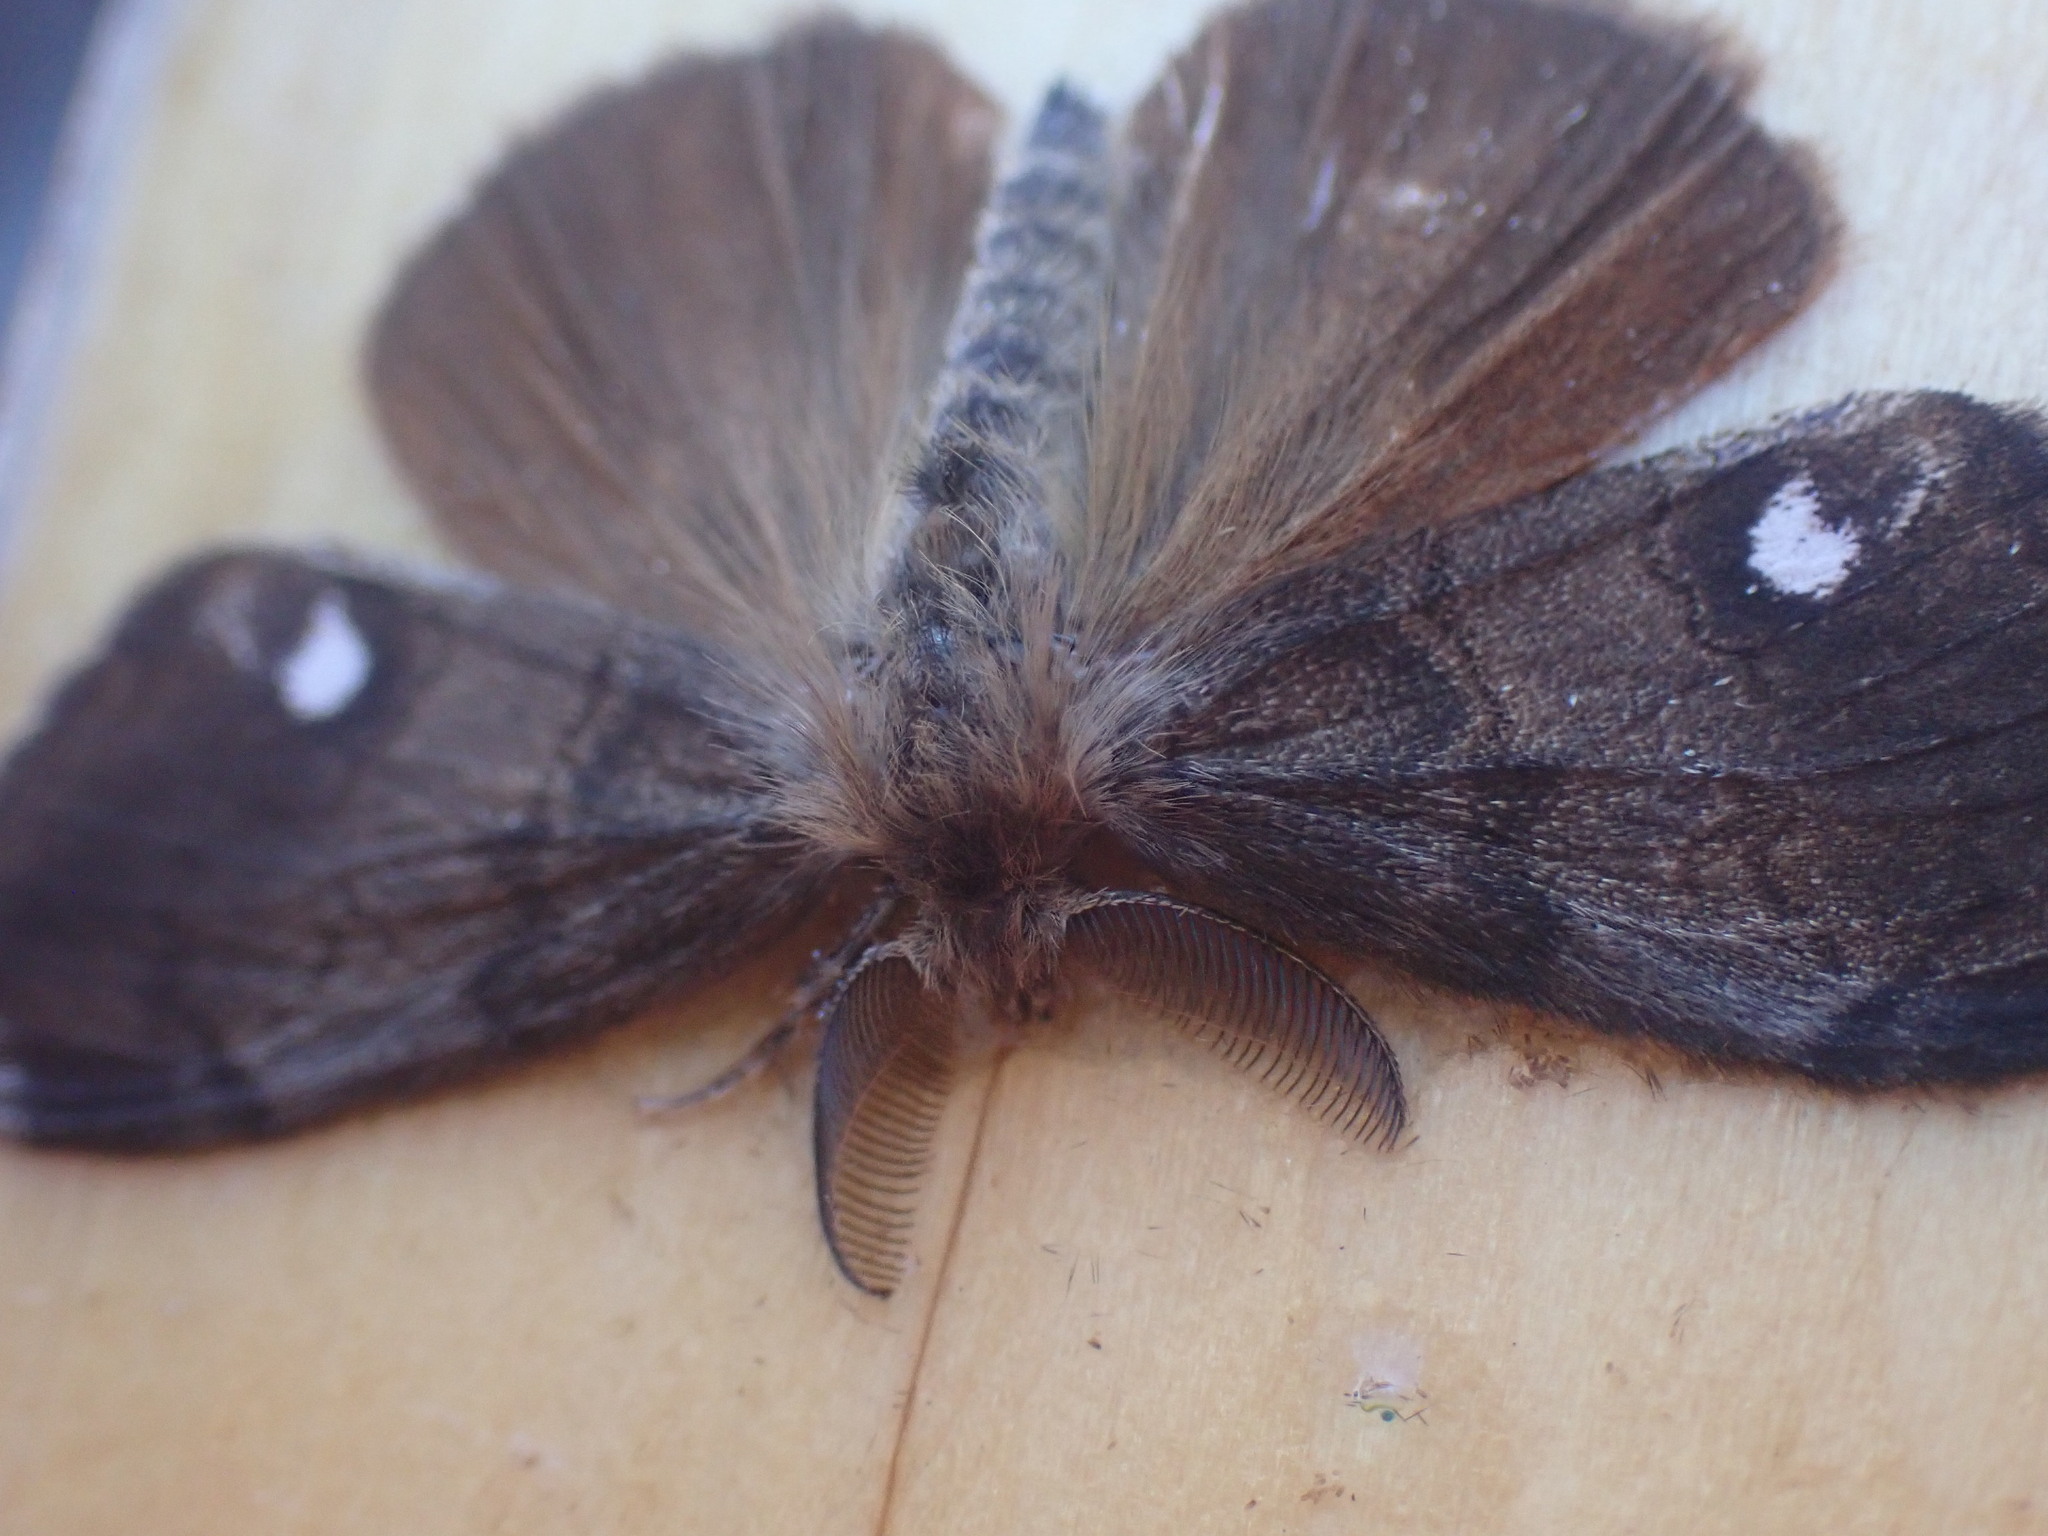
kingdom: Animalia
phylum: Arthropoda
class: Insecta
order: Lepidoptera
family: Erebidae
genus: Orgyia
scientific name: Orgyia antiqua
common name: Vapourer
